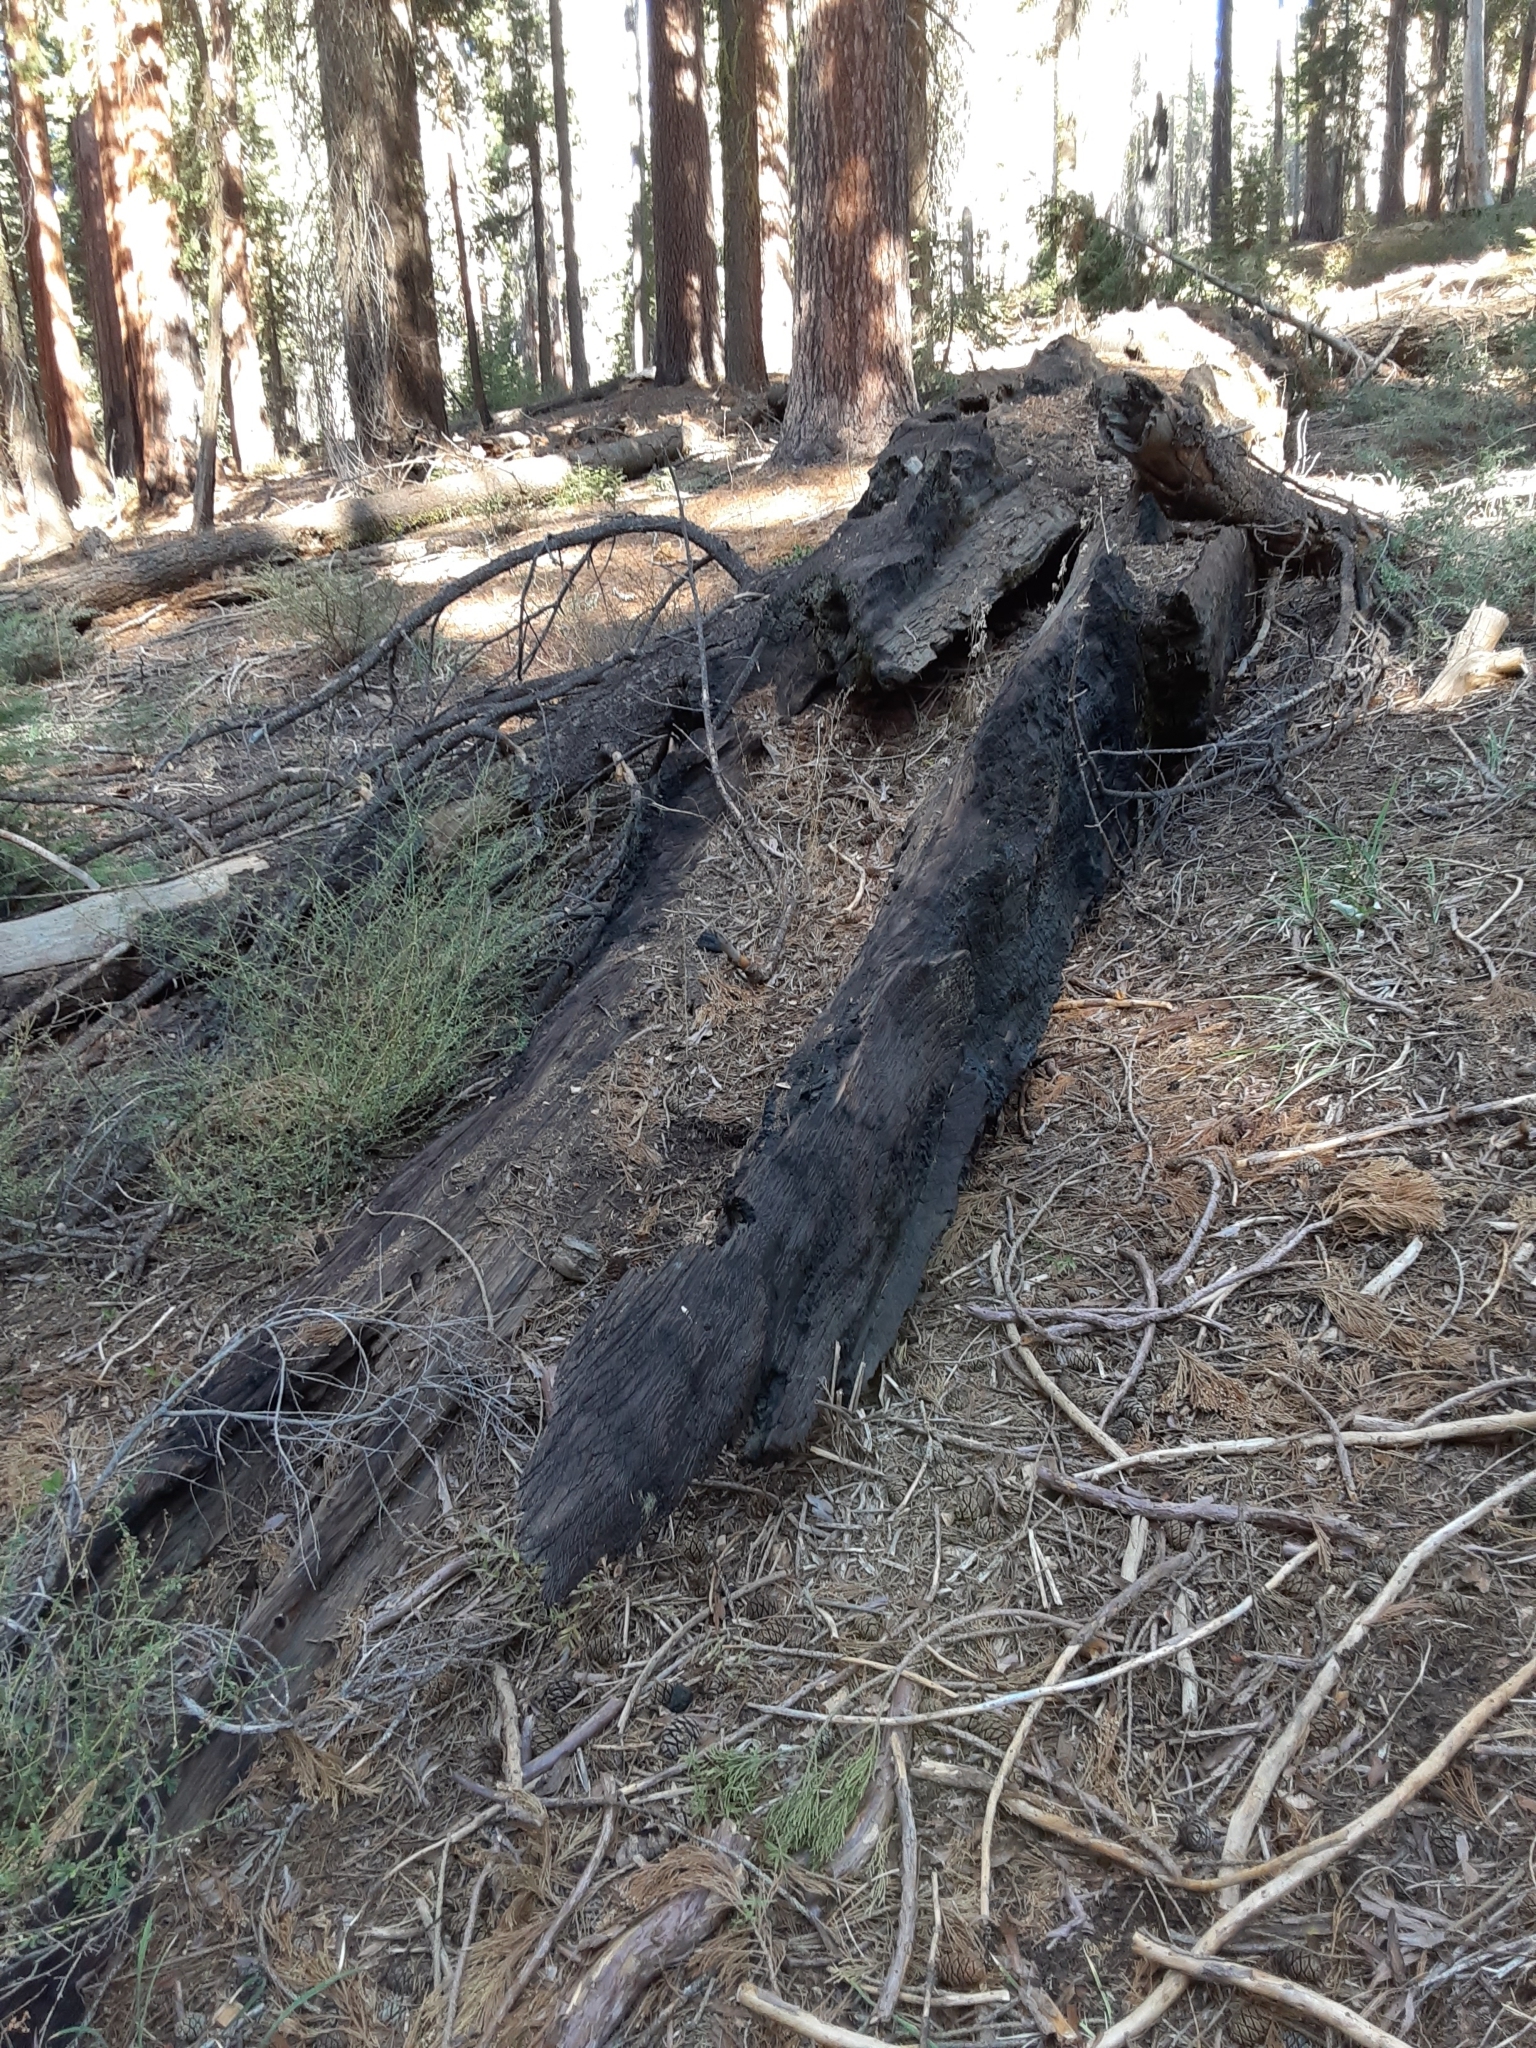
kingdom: Plantae
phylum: Tracheophyta
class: Pinopsida
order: Pinales
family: Cupressaceae
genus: Sequoiadendron
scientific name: Sequoiadendron giganteum
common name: Wellingtonia
